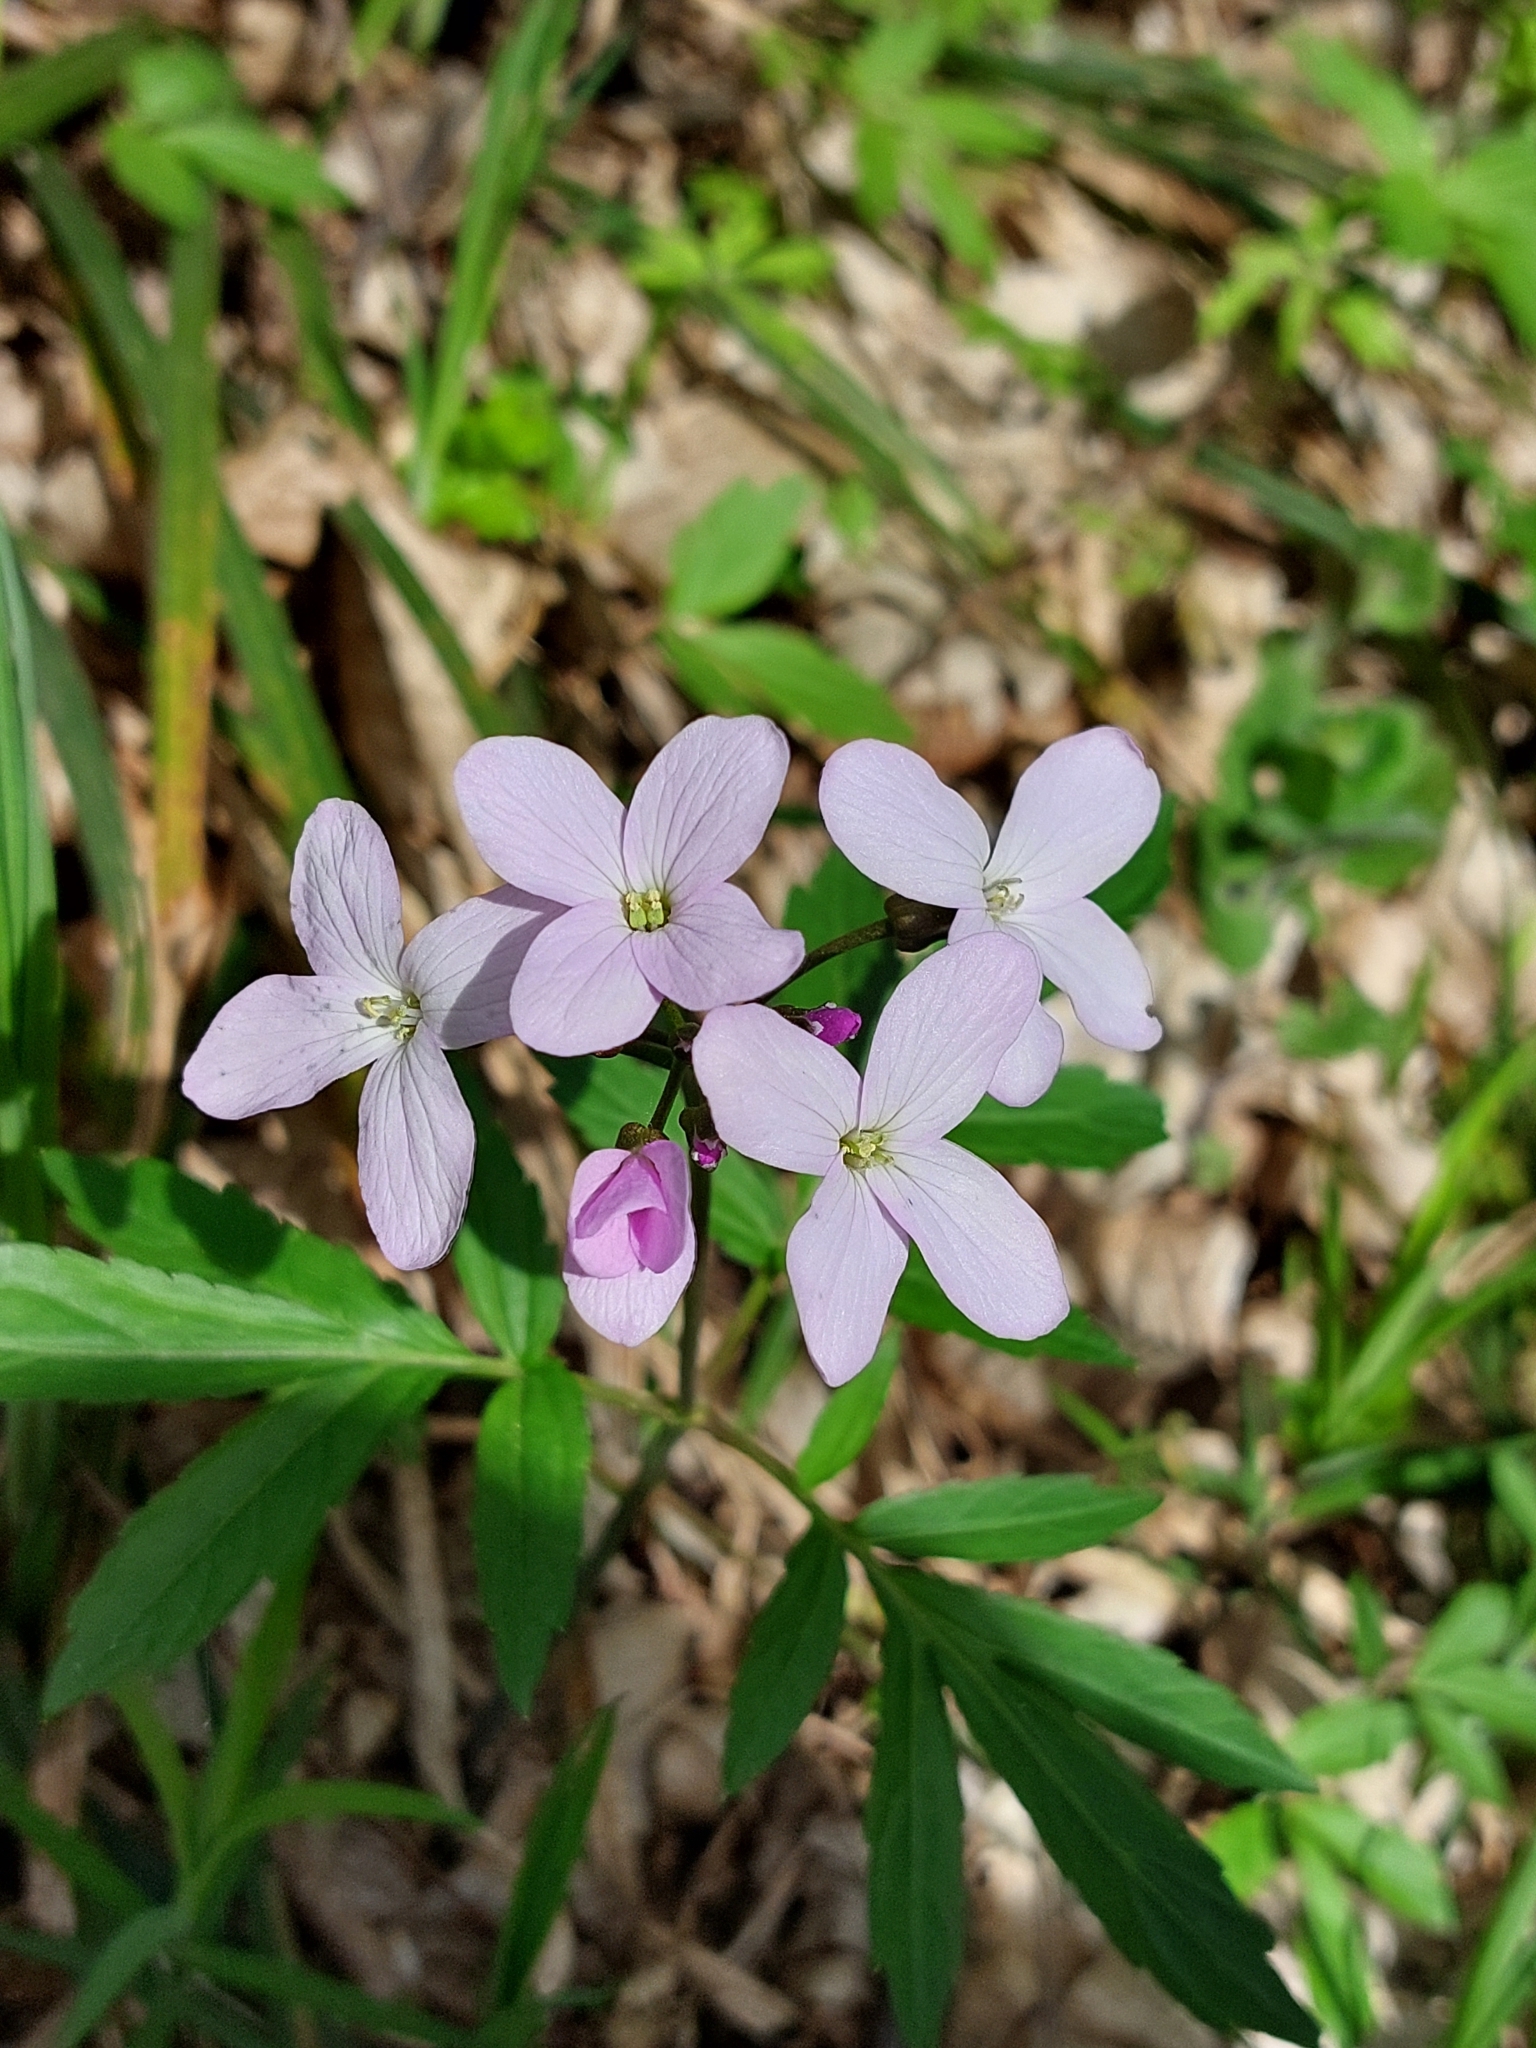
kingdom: Plantae
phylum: Tracheophyta
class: Magnoliopsida
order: Brassicales
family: Brassicaceae
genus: Cardamine
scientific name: Cardamine quinquefolia
